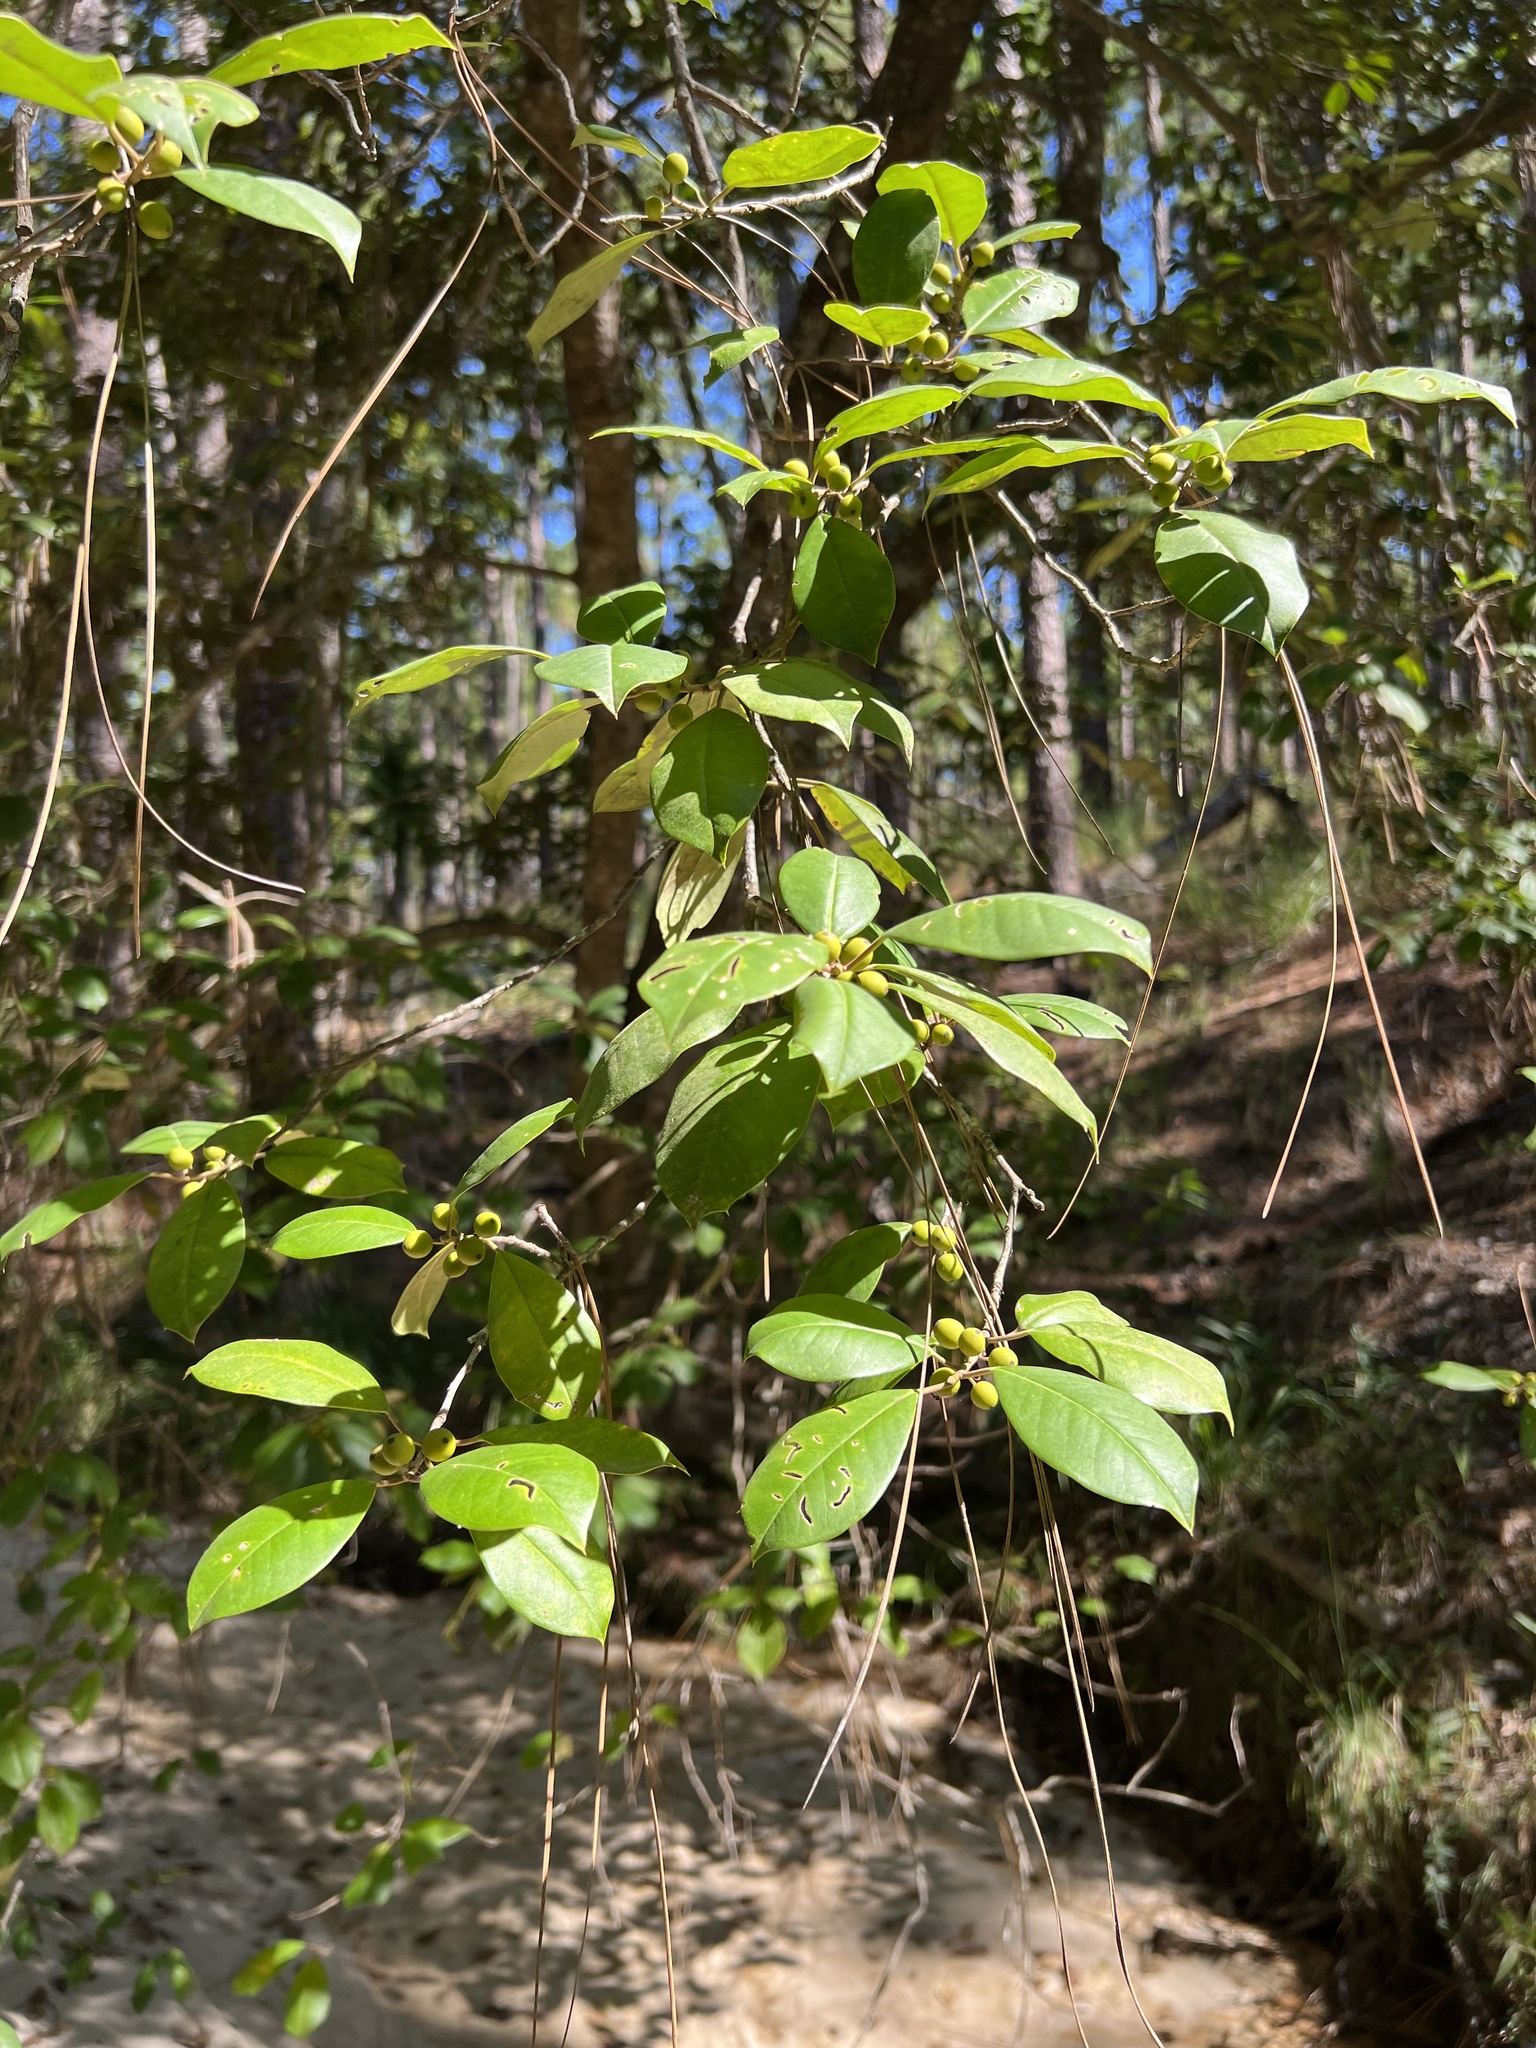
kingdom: Plantae
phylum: Tracheophyta
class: Magnoliopsida
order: Aquifoliales
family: Aquifoliaceae
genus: Ilex
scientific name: Ilex opaca
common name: American holly
